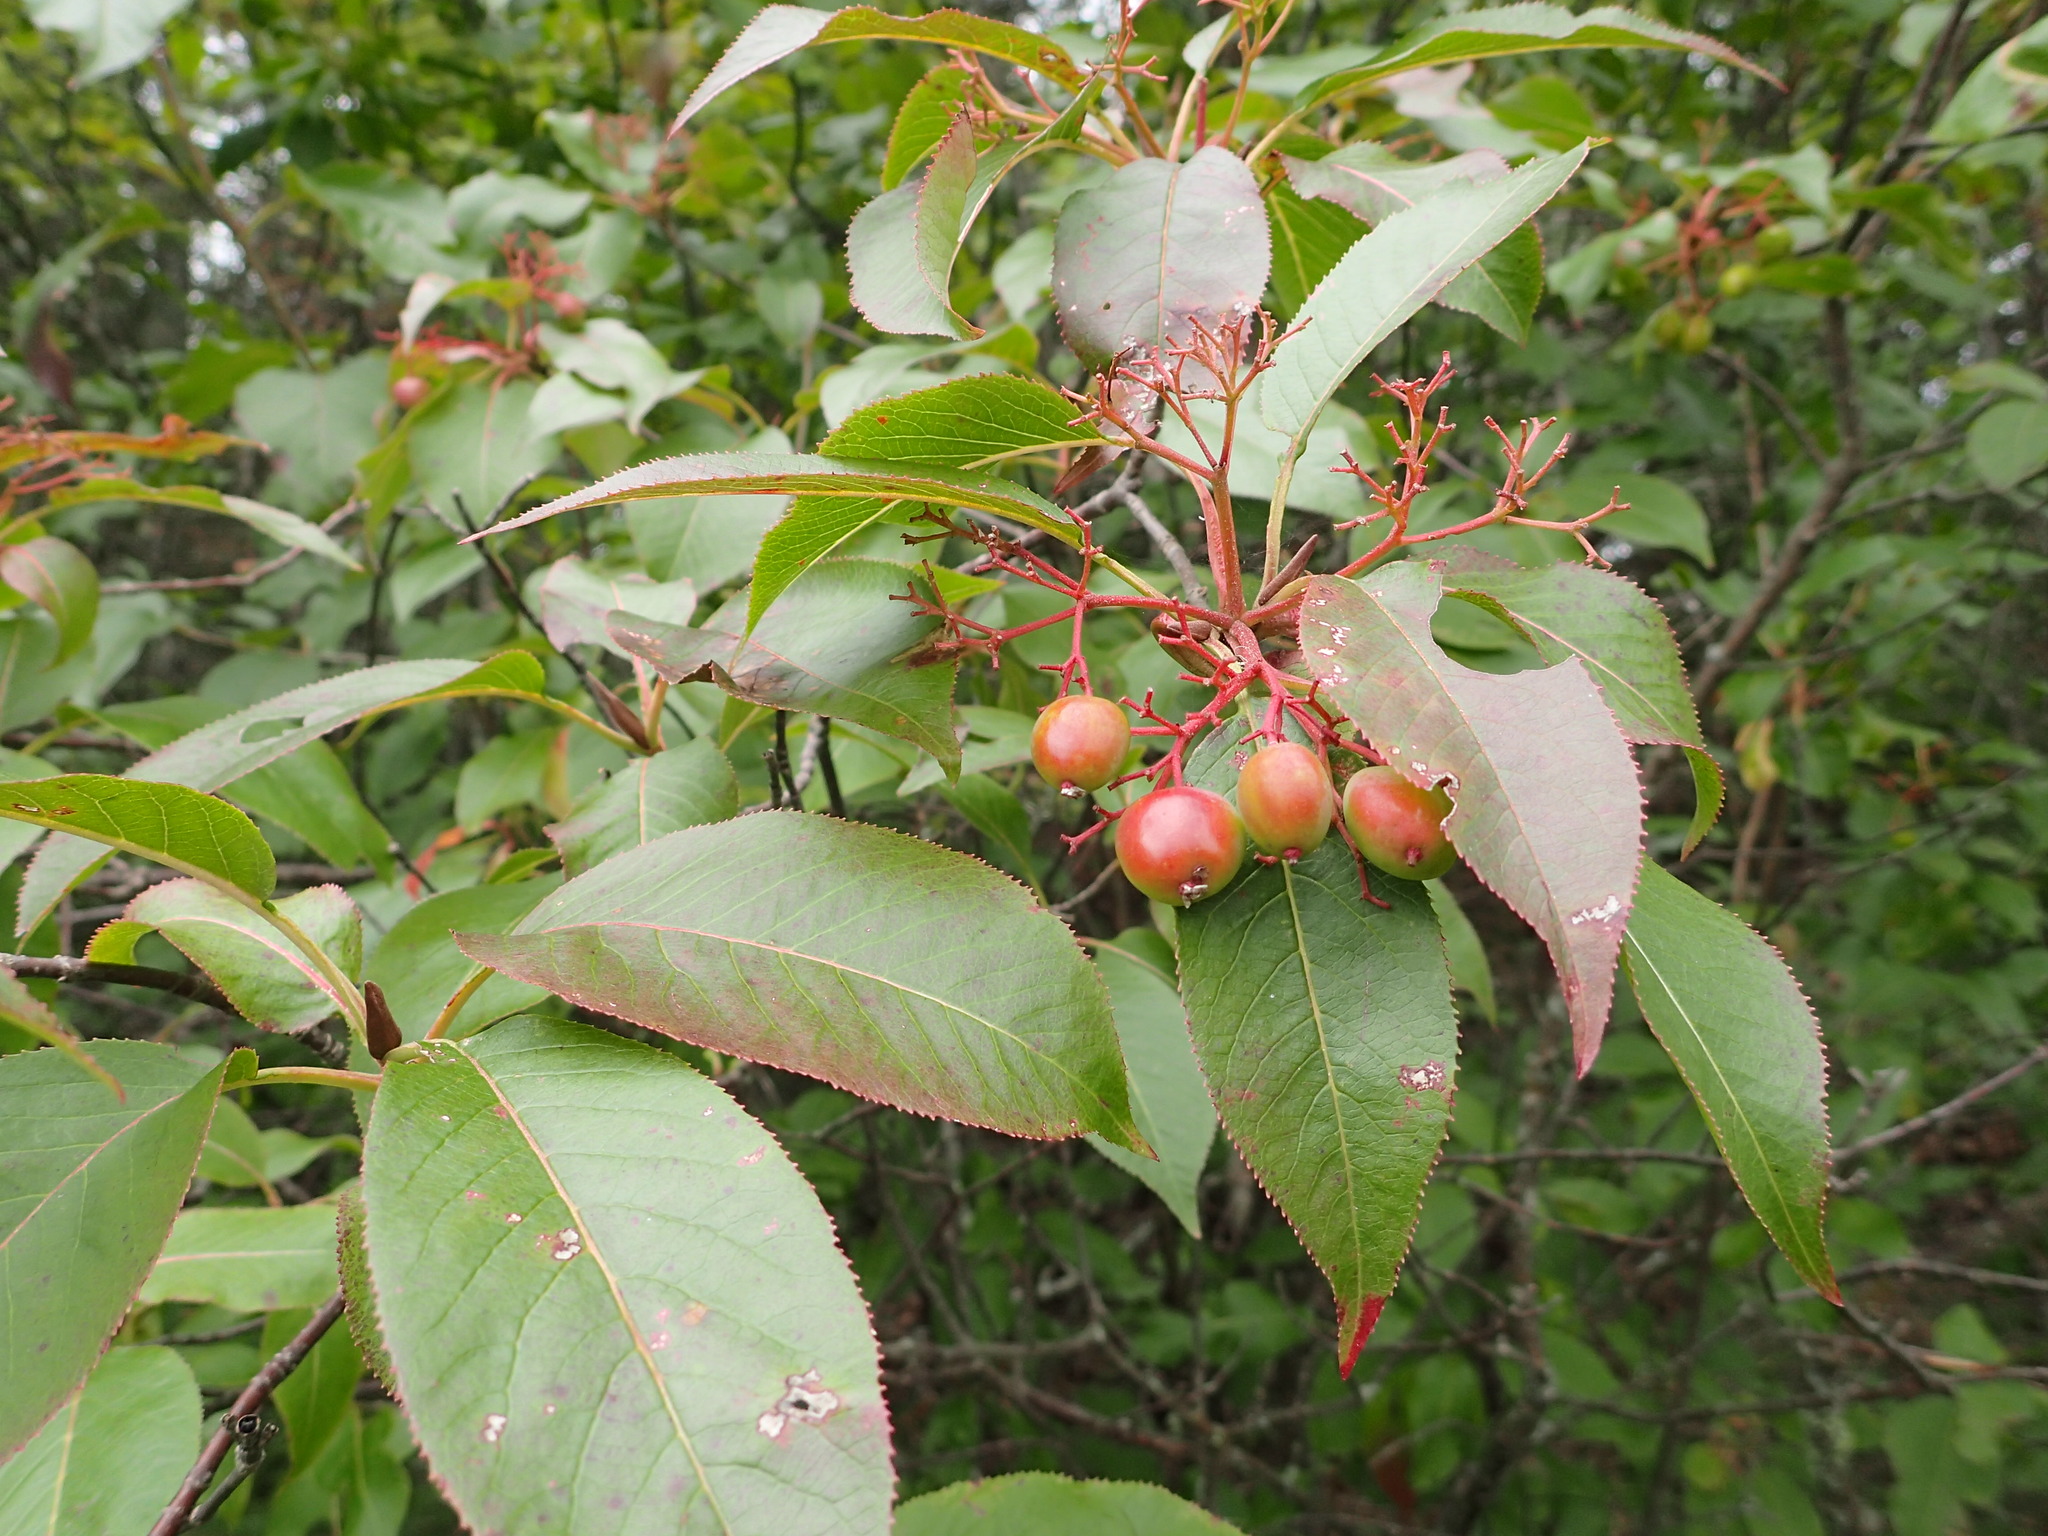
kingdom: Plantae
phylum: Tracheophyta
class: Magnoliopsida
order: Dipsacales
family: Viburnaceae
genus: Viburnum
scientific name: Viburnum lentago
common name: Black haw
